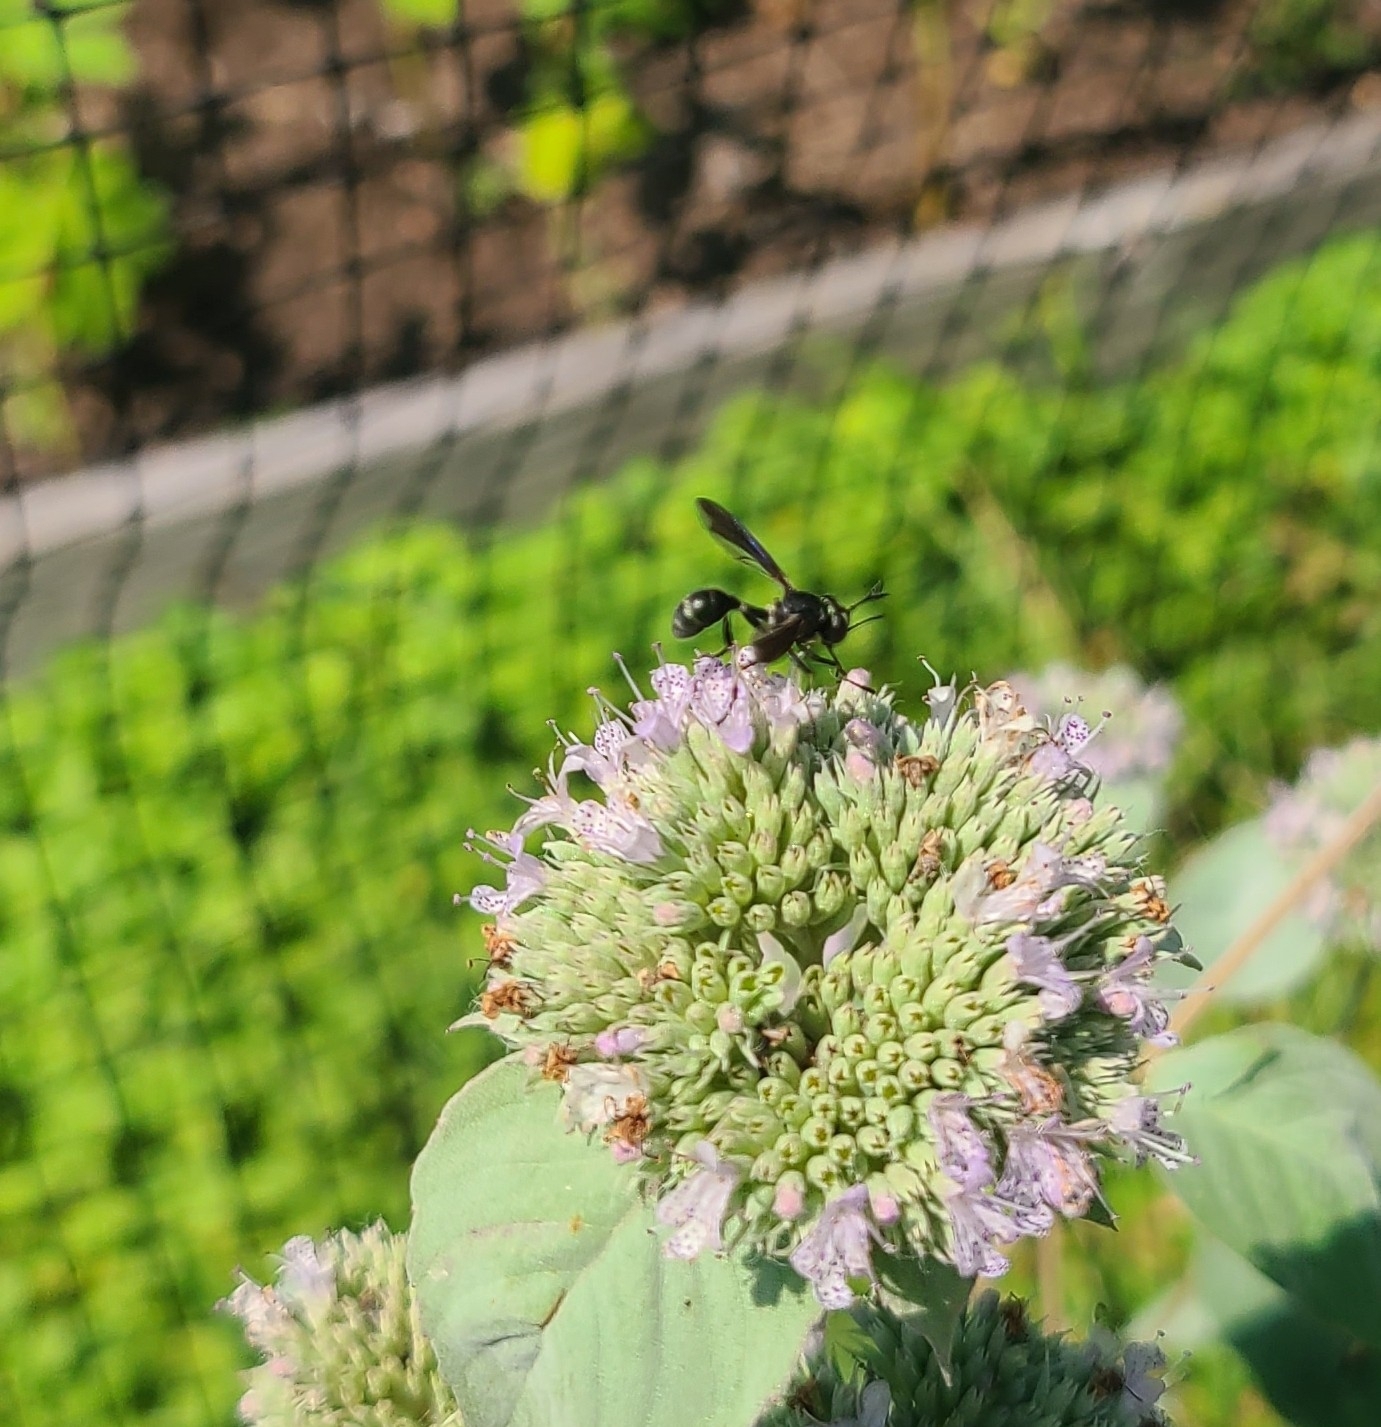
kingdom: Animalia
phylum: Arthropoda
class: Insecta
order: Diptera
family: Conopidae
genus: Physocephala
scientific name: Physocephala tibialis
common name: Common eastern physocephala
